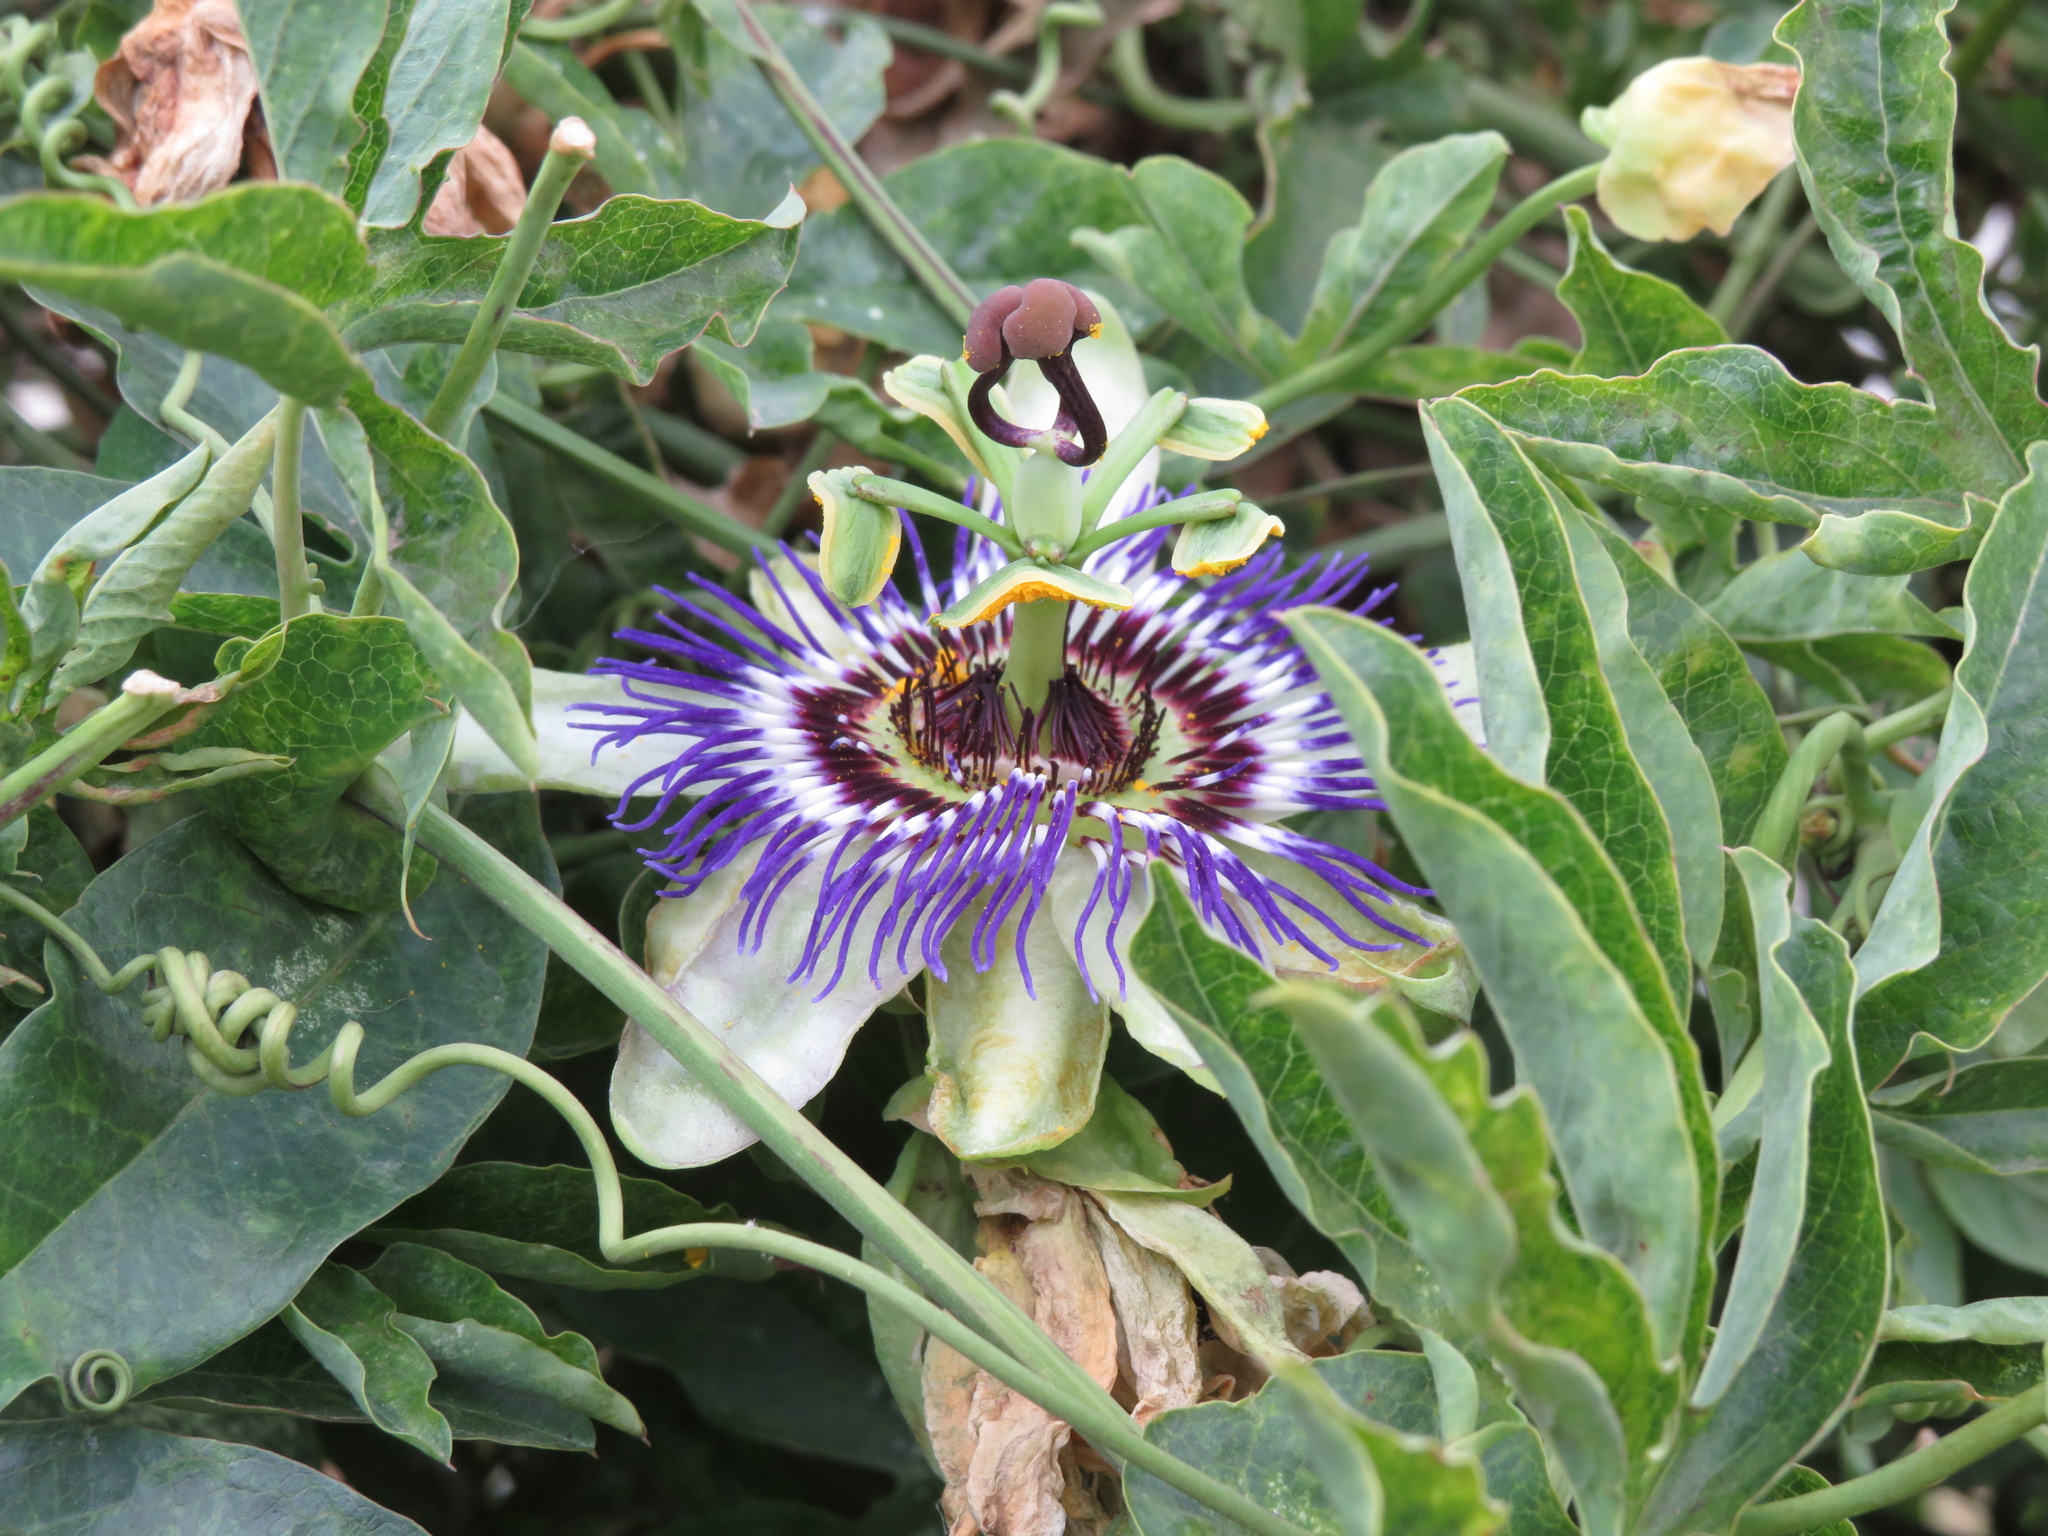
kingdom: Plantae
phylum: Tracheophyta
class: Magnoliopsida
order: Malpighiales
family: Passifloraceae
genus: Passiflora
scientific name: Passiflora caerulea
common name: Blue passionflower
